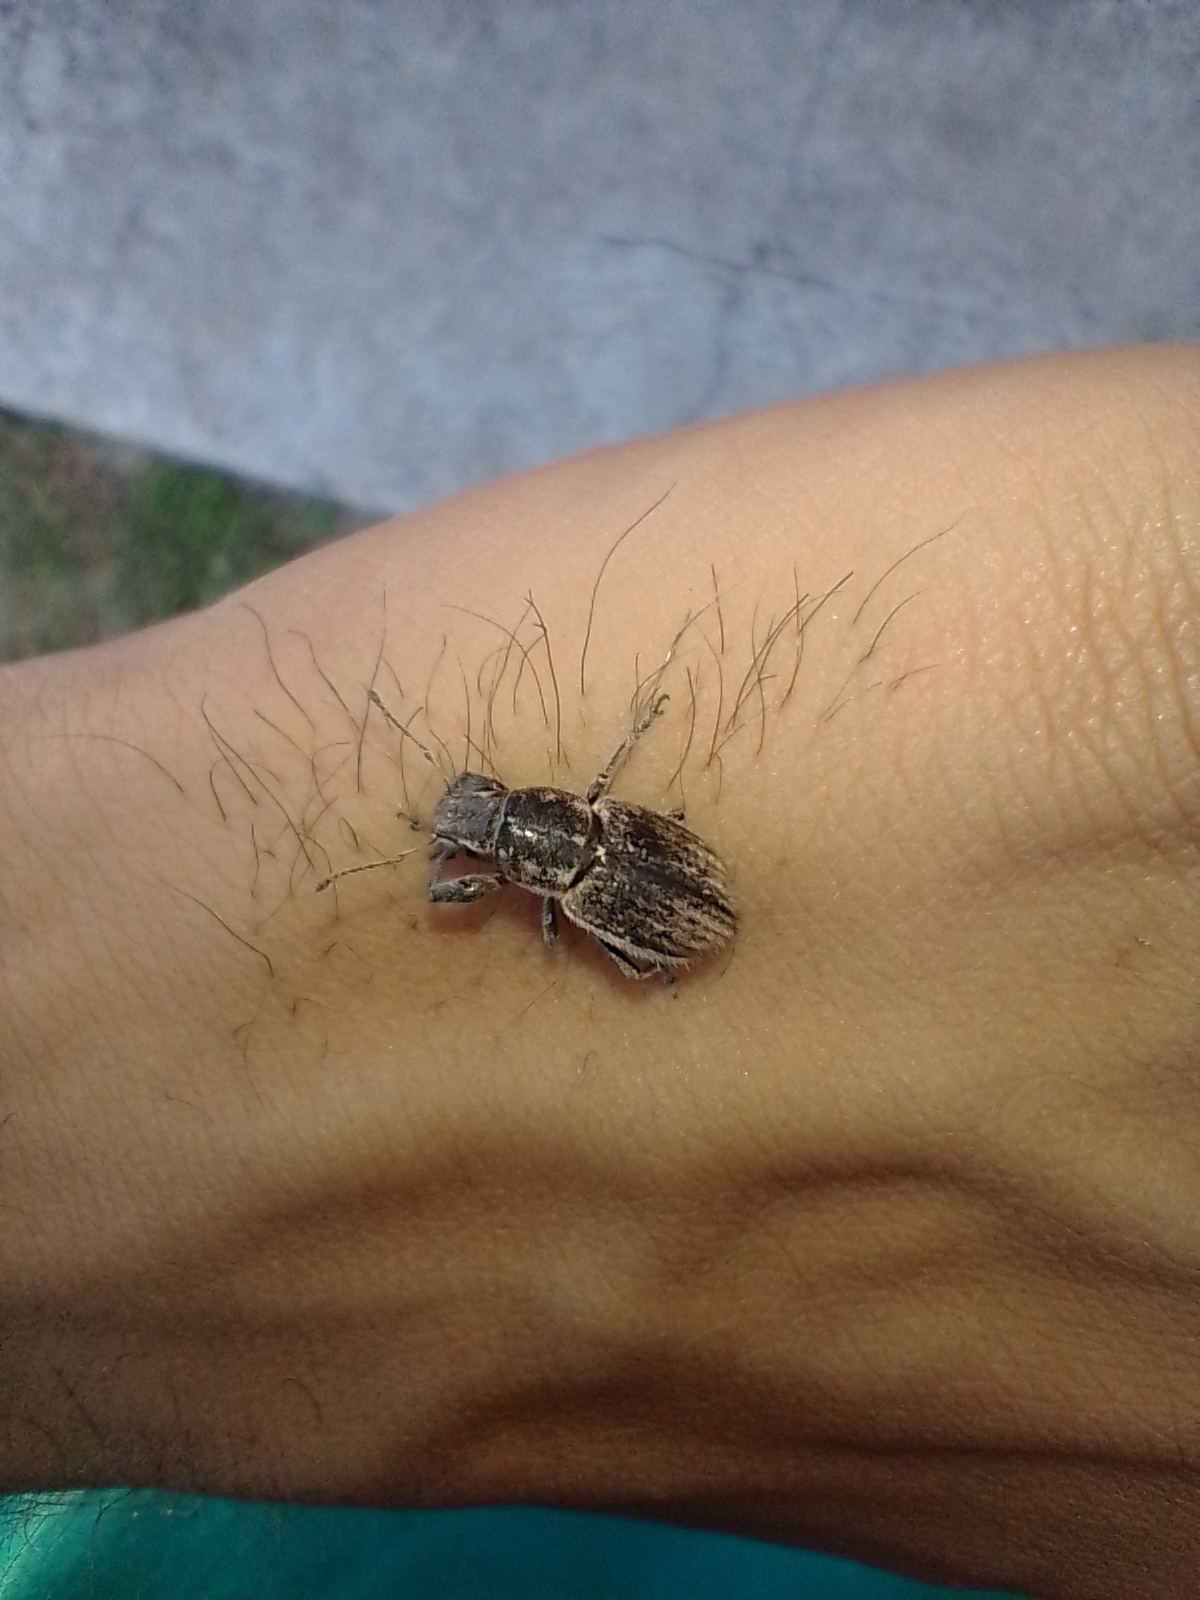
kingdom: Animalia
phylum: Arthropoda
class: Insecta
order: Coleoptera
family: Curculionidae
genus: Naupactus
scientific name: Naupactus leucoloma
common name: Whitefringed beetle
